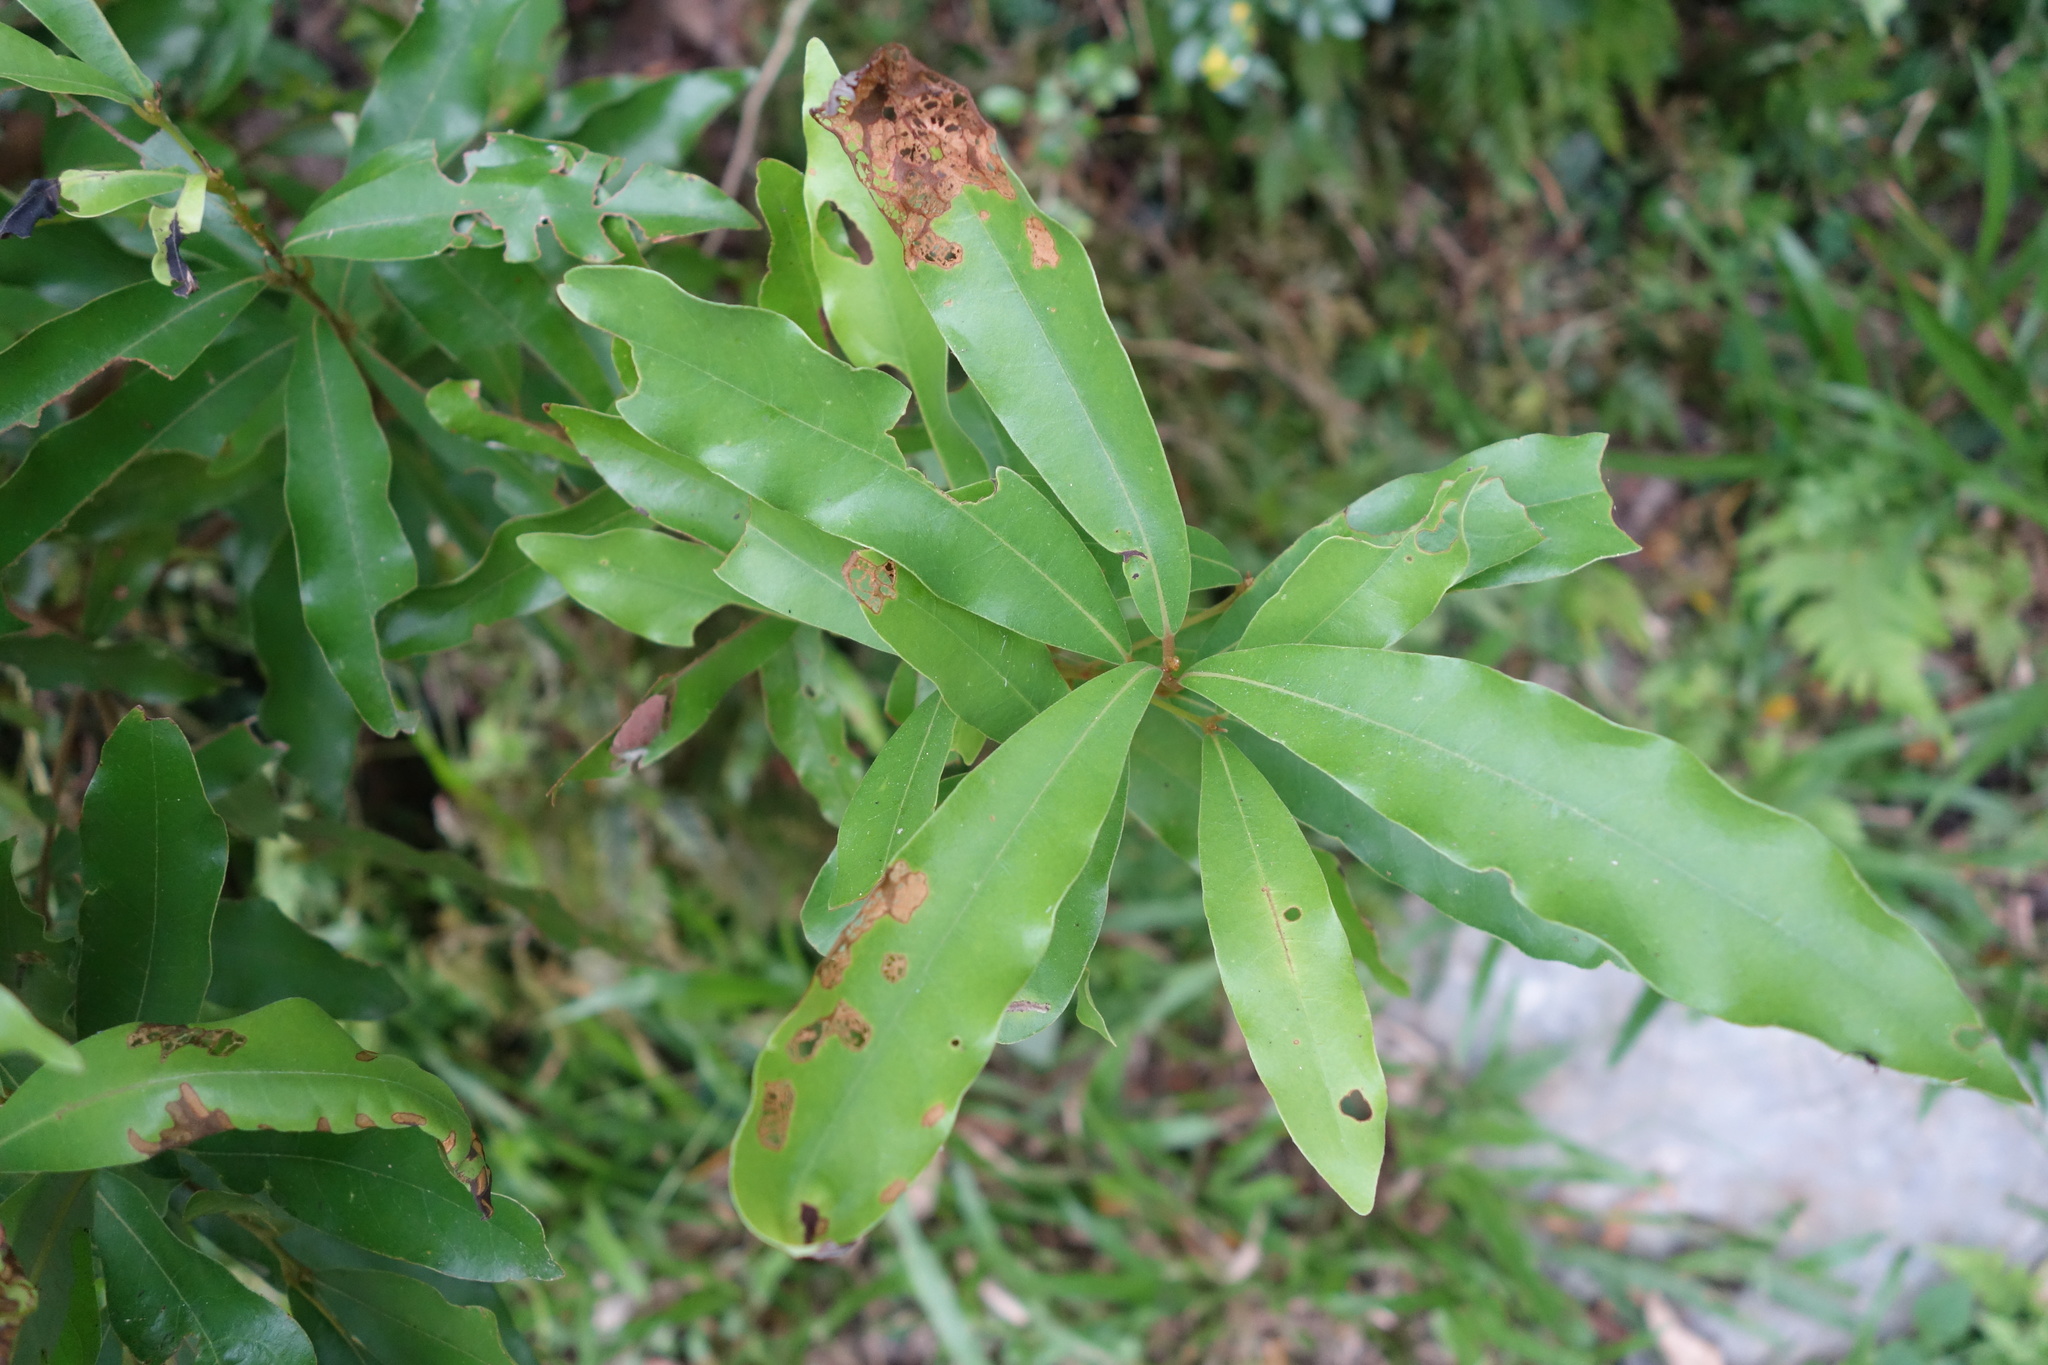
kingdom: Plantae
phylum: Tracheophyta
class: Magnoliopsida
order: Laurales
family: Lauraceae
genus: Litsea
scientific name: Litsea hypophaea
